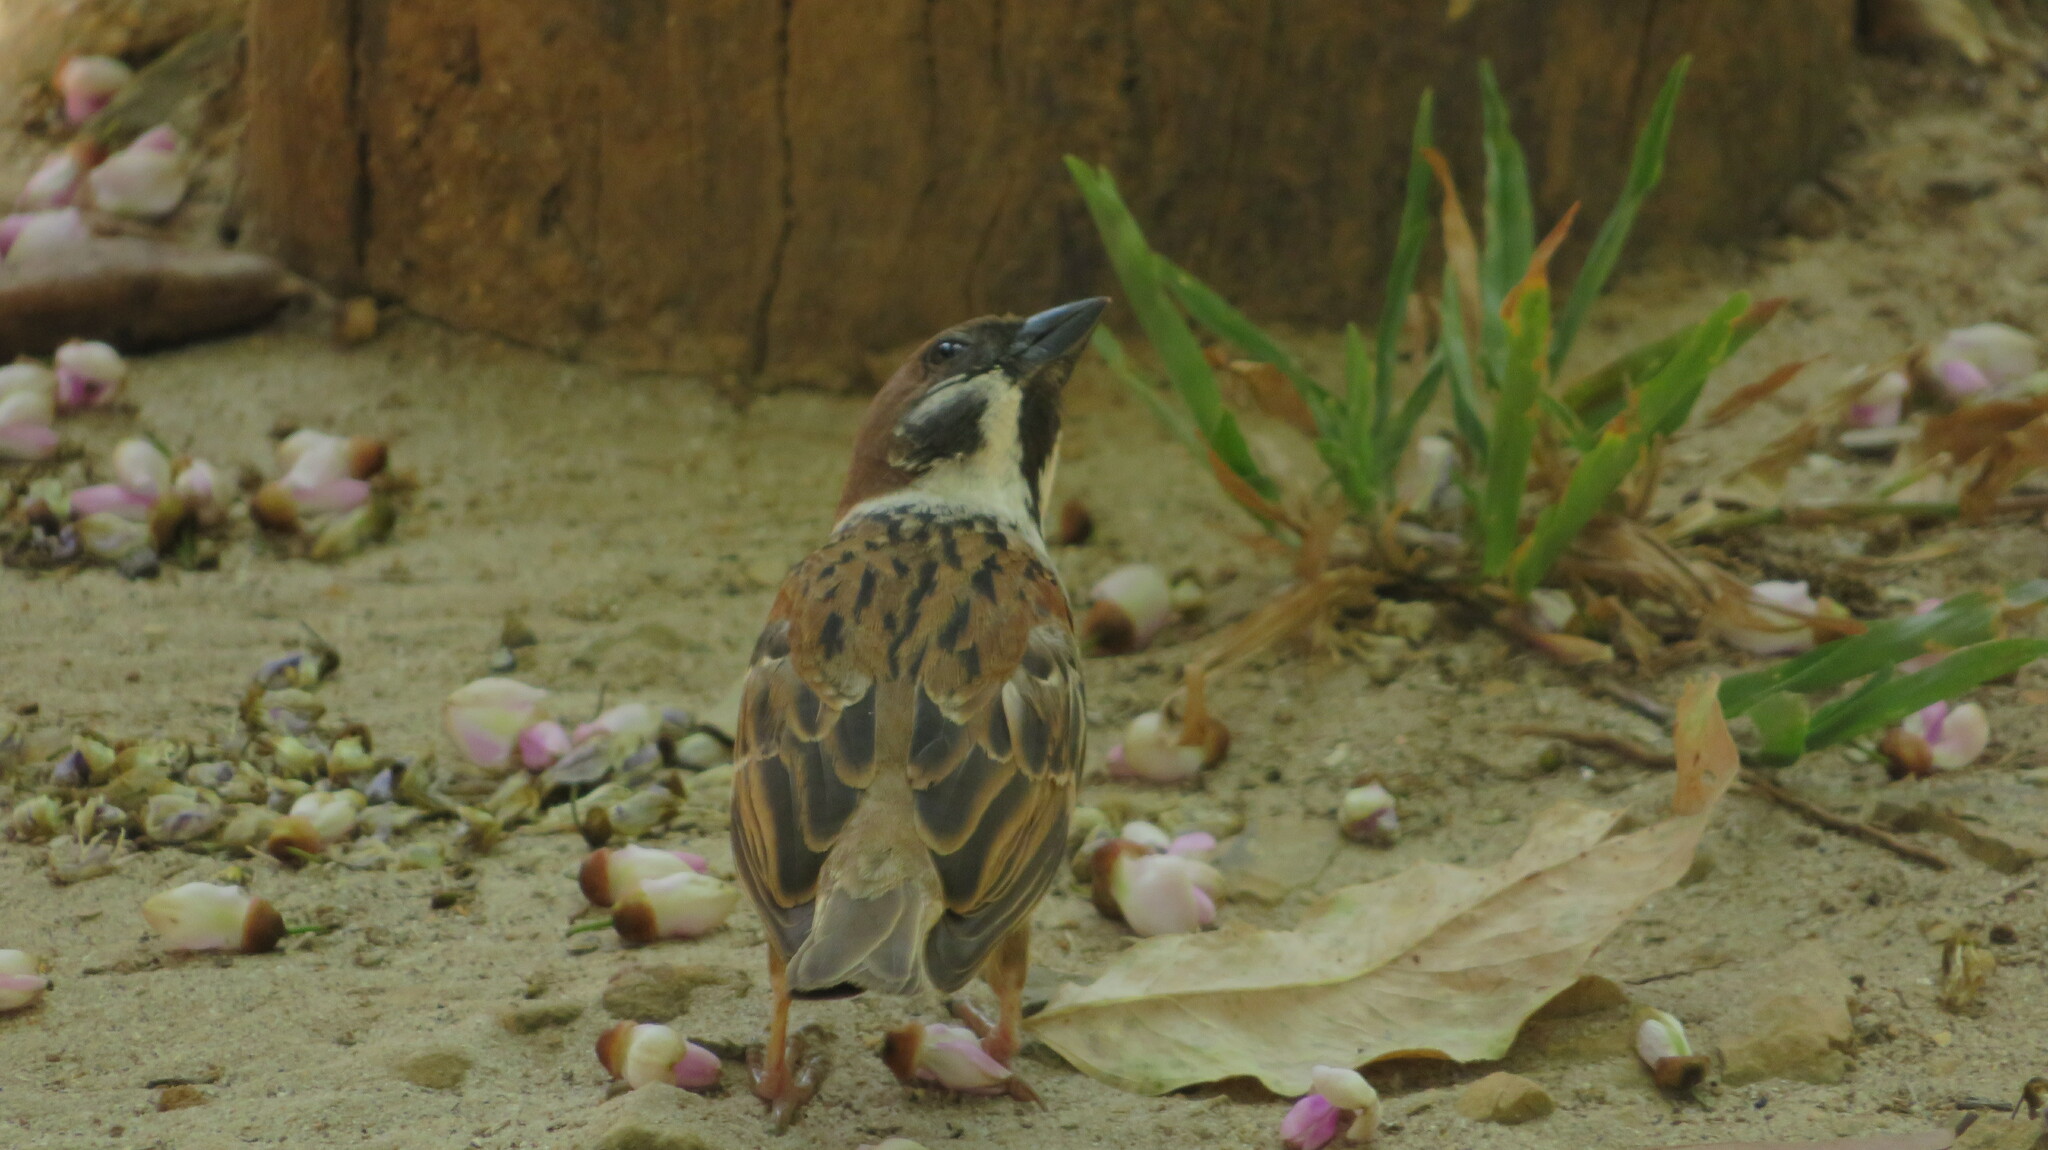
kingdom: Animalia
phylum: Chordata
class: Aves
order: Passeriformes
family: Passeridae
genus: Passer
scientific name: Passer montanus
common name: Eurasian tree sparrow
